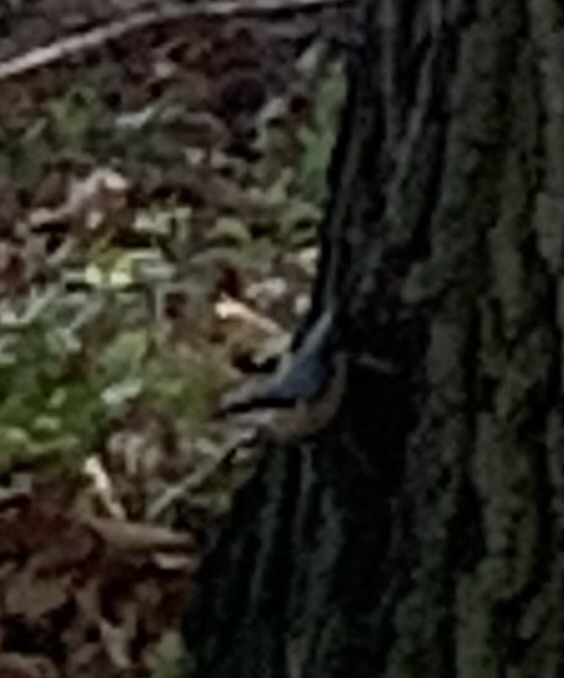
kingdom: Animalia
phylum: Chordata
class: Aves
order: Passeriformes
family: Sittidae
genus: Sitta
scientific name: Sitta europaea
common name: Eurasian nuthatch
